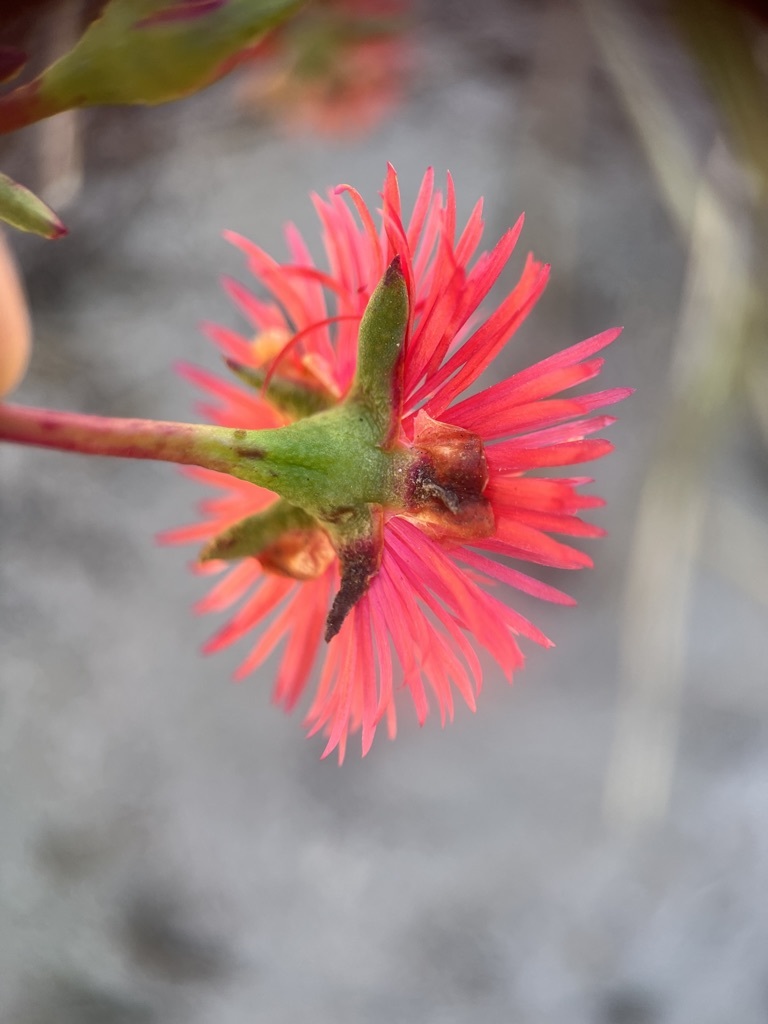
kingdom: Plantae
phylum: Tracheophyta
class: Magnoliopsida
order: Caryophyllales
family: Aizoaceae
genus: Lampranthus
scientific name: Lampranthus tenuifolius
